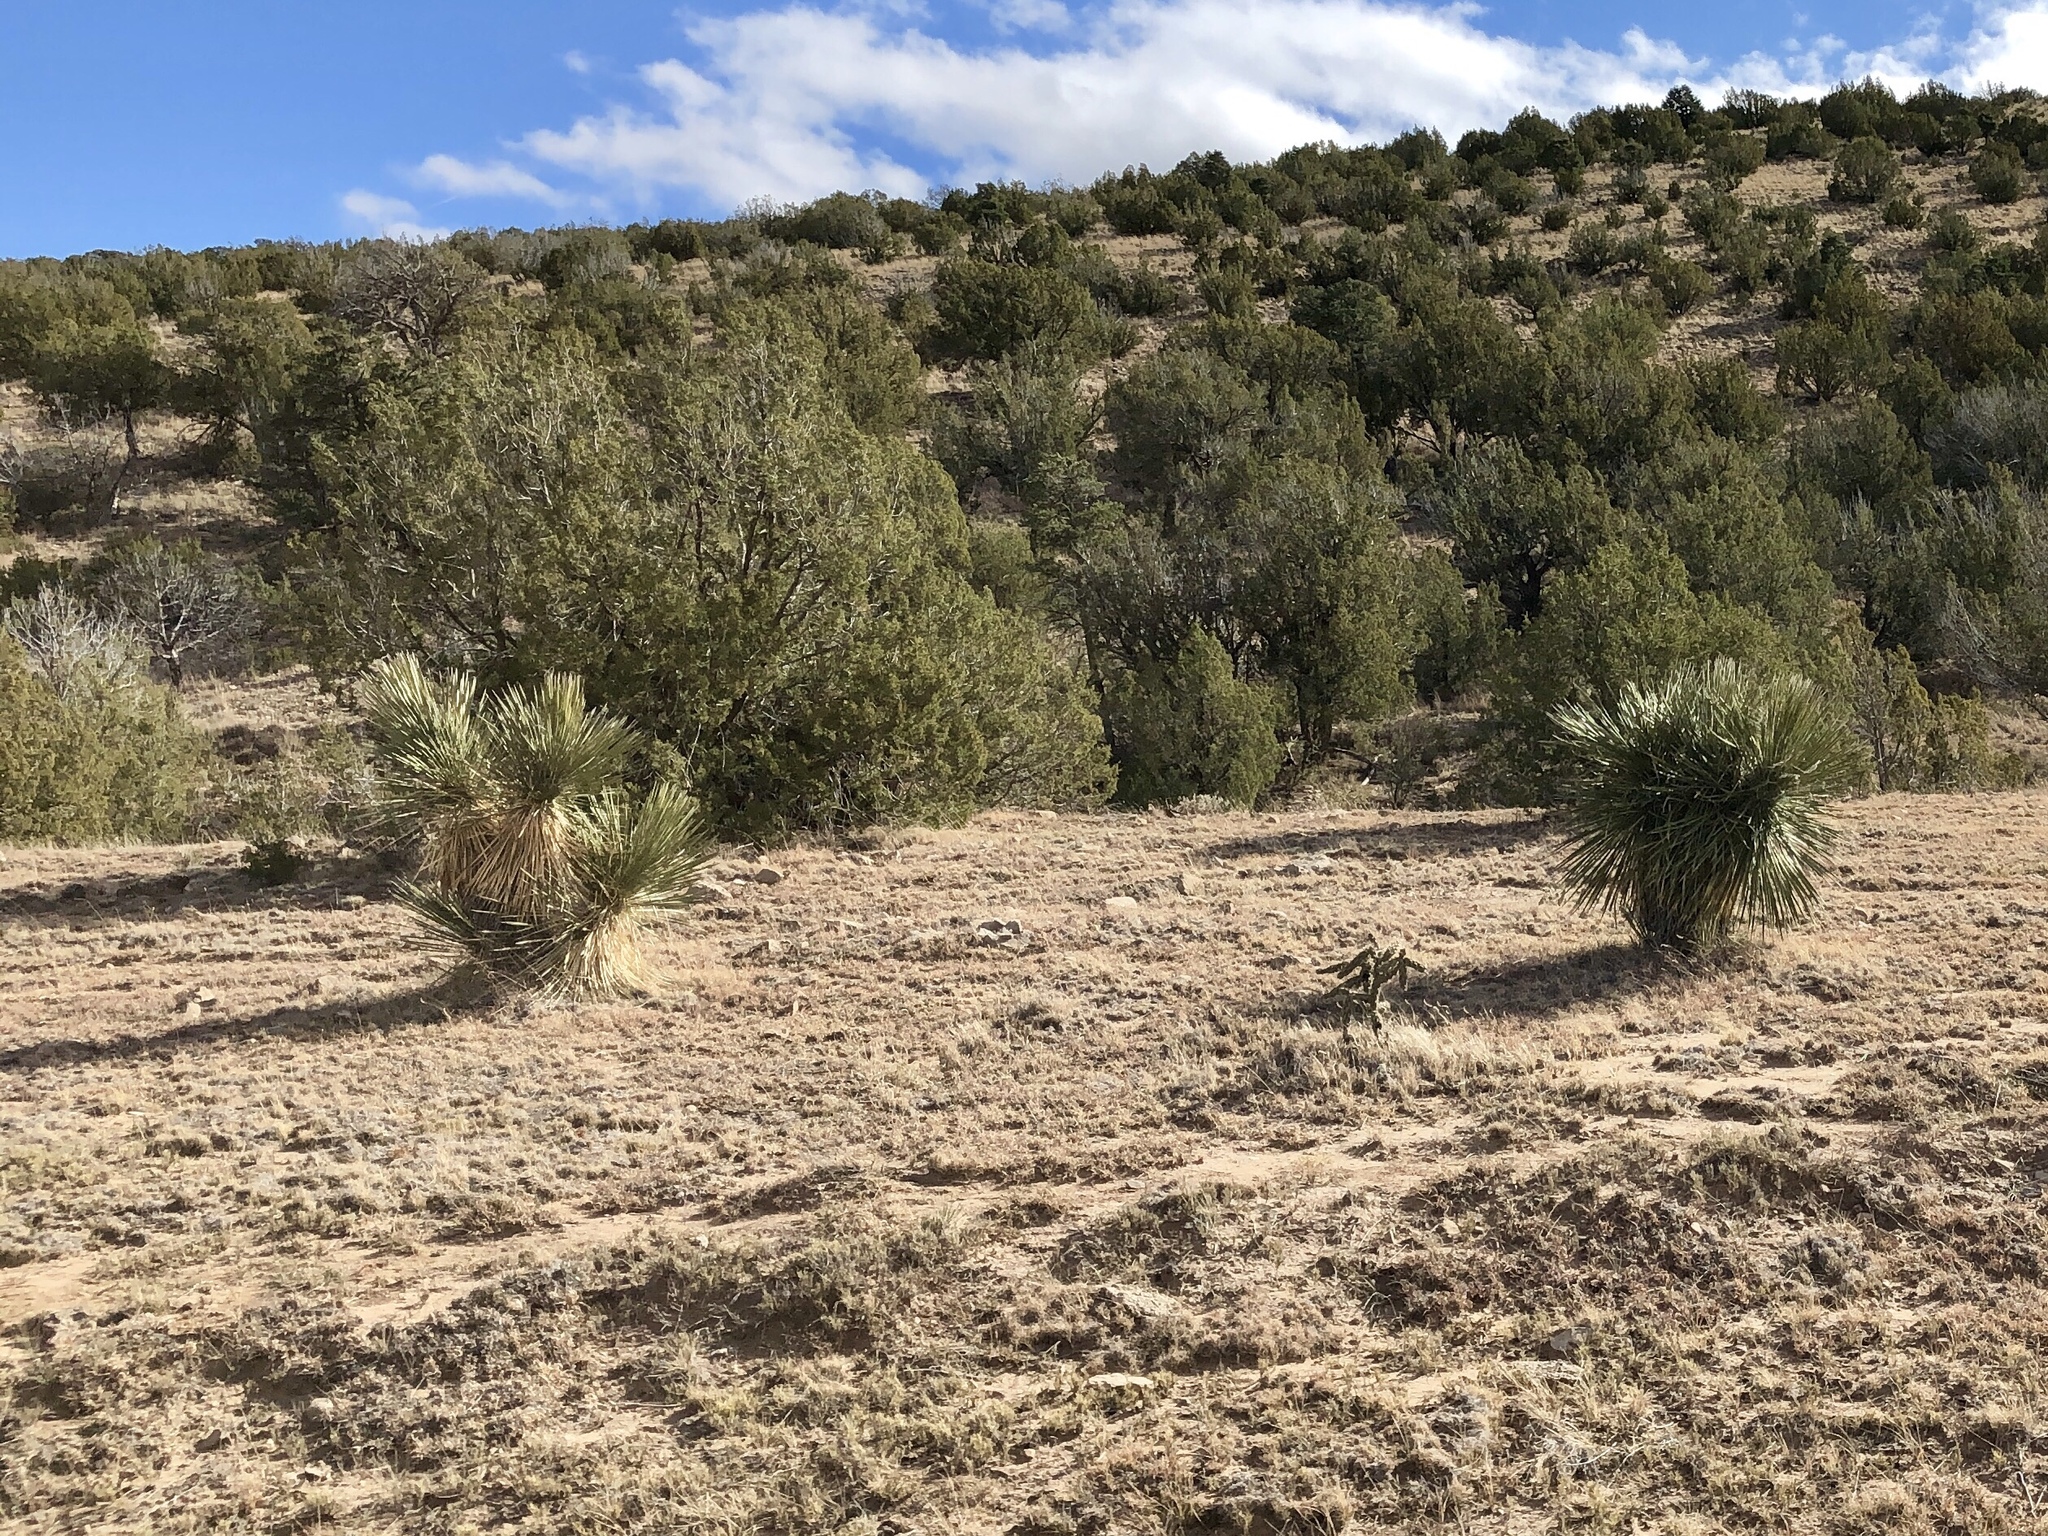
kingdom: Plantae
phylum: Tracheophyta
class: Liliopsida
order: Asparagales
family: Asparagaceae
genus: Yucca
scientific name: Yucca elata
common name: Palmella
